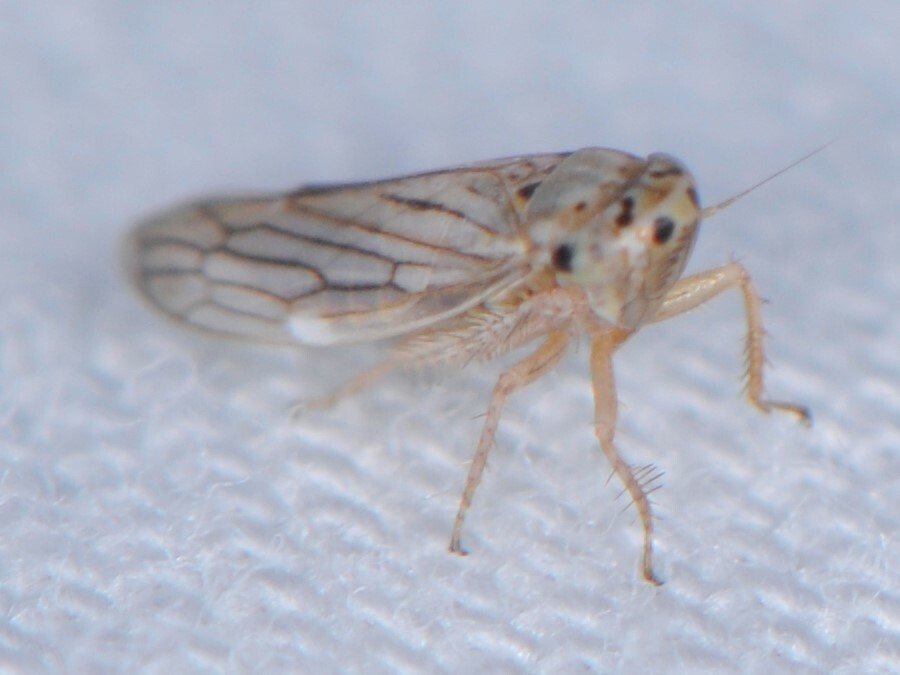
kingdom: Animalia
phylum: Arthropoda
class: Insecta
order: Hemiptera
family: Cicadellidae
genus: Exitianus
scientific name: Exitianus
